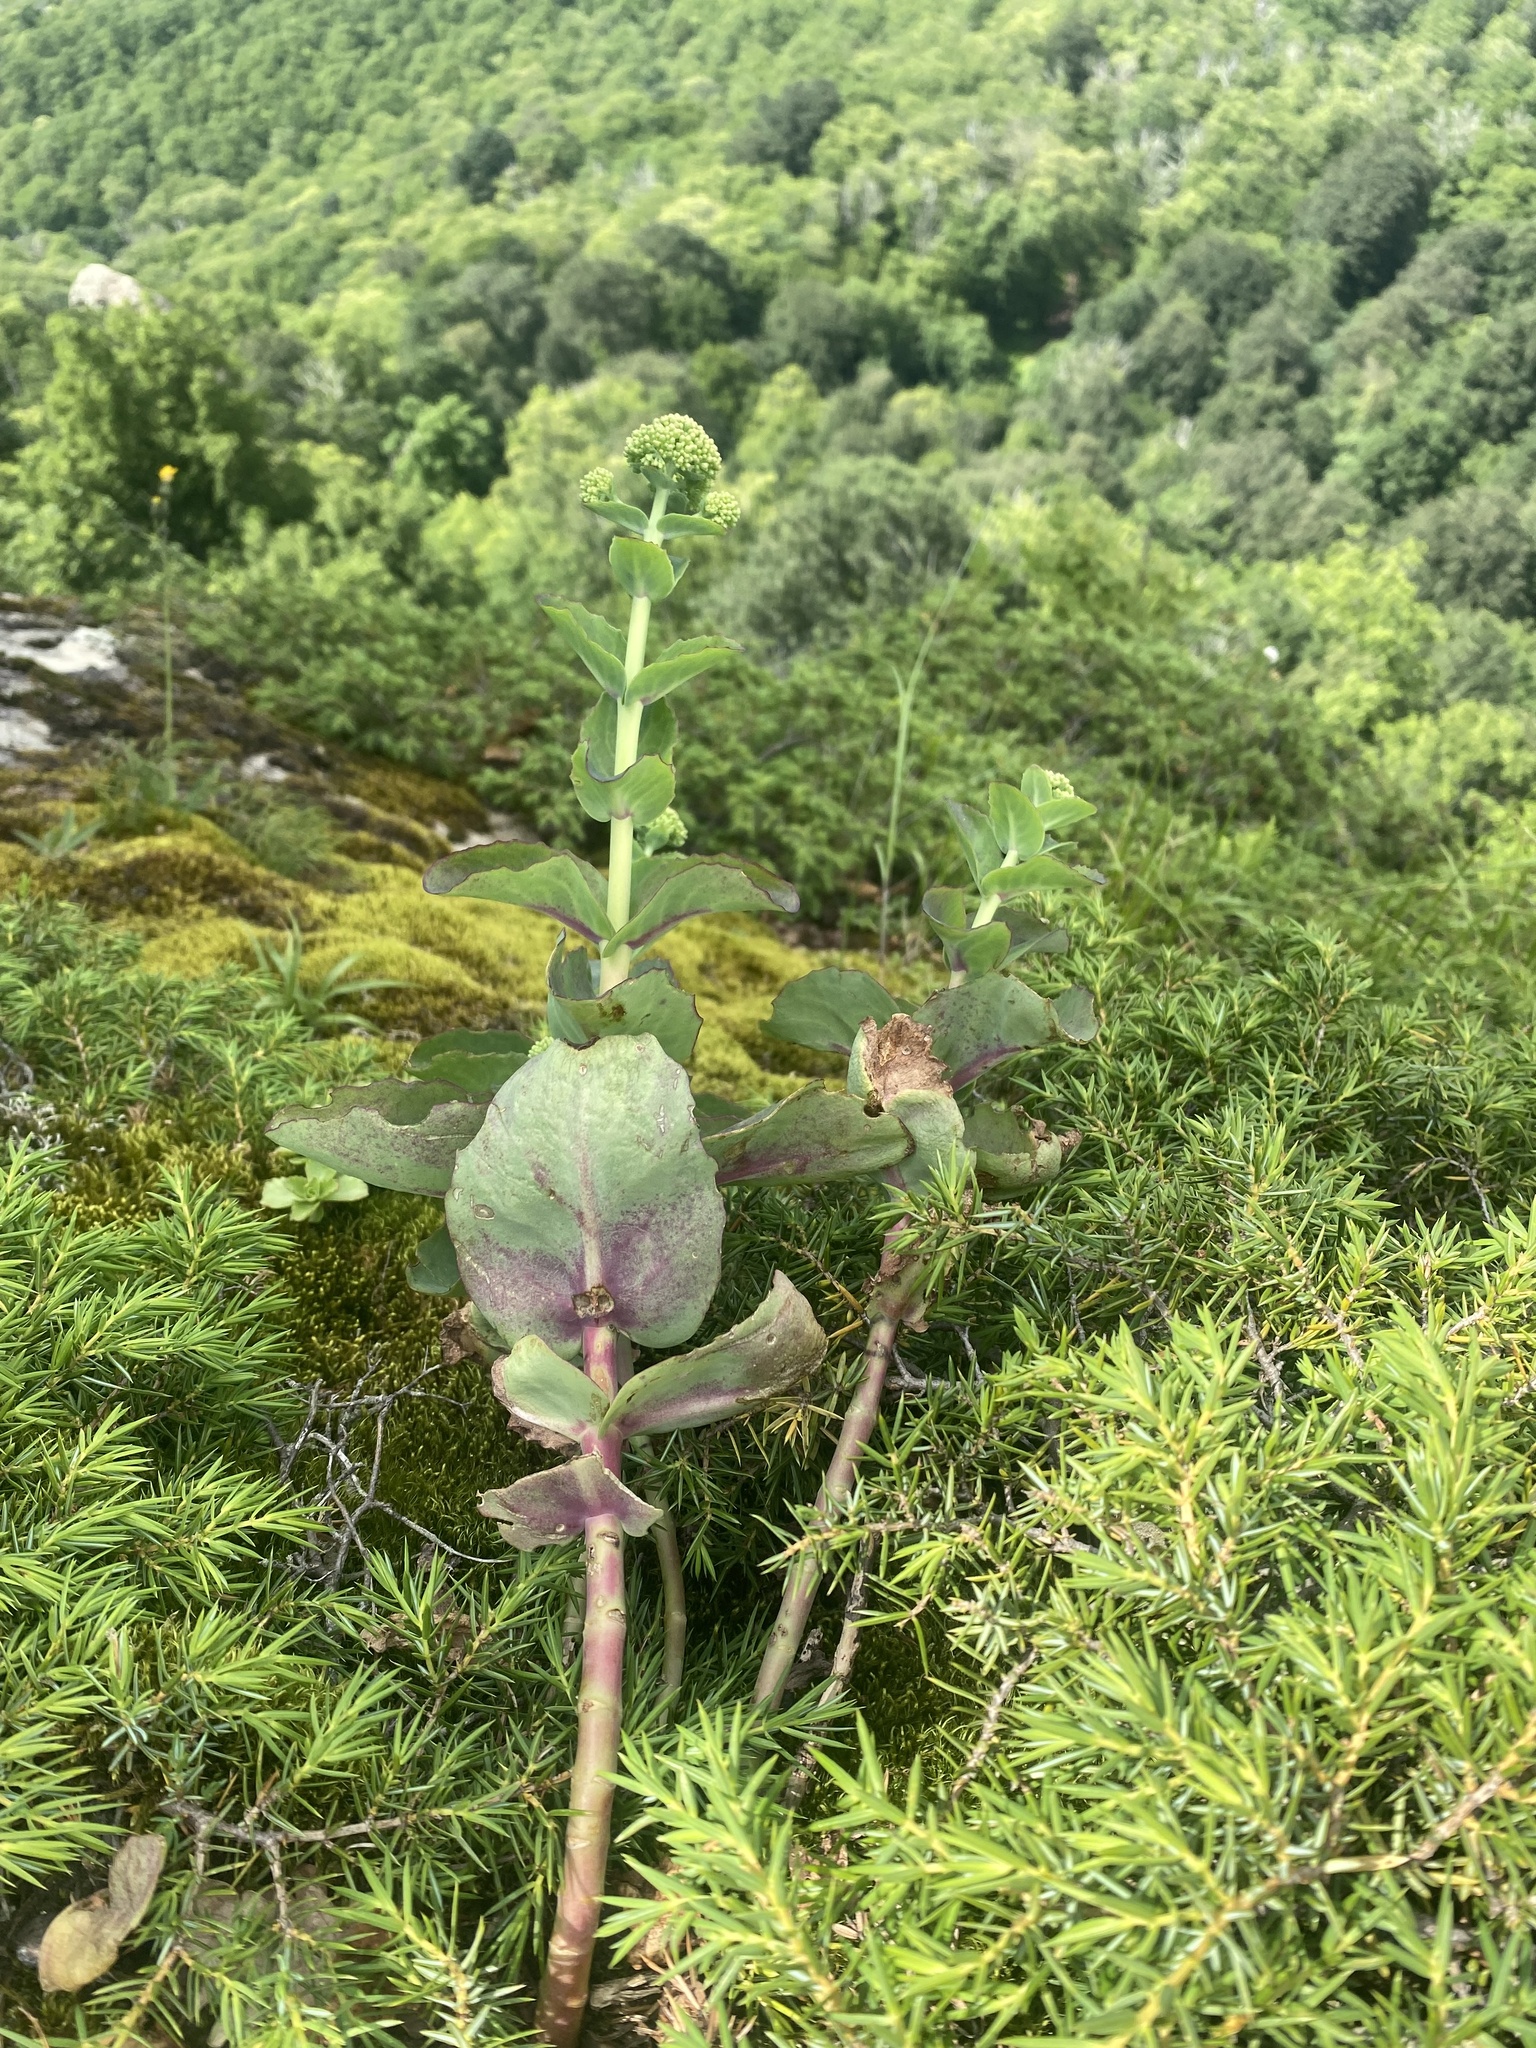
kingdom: Plantae
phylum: Tracheophyta
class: Magnoliopsida
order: Saxifragales
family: Crassulaceae
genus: Hylotelephium
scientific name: Hylotelephium maximum
